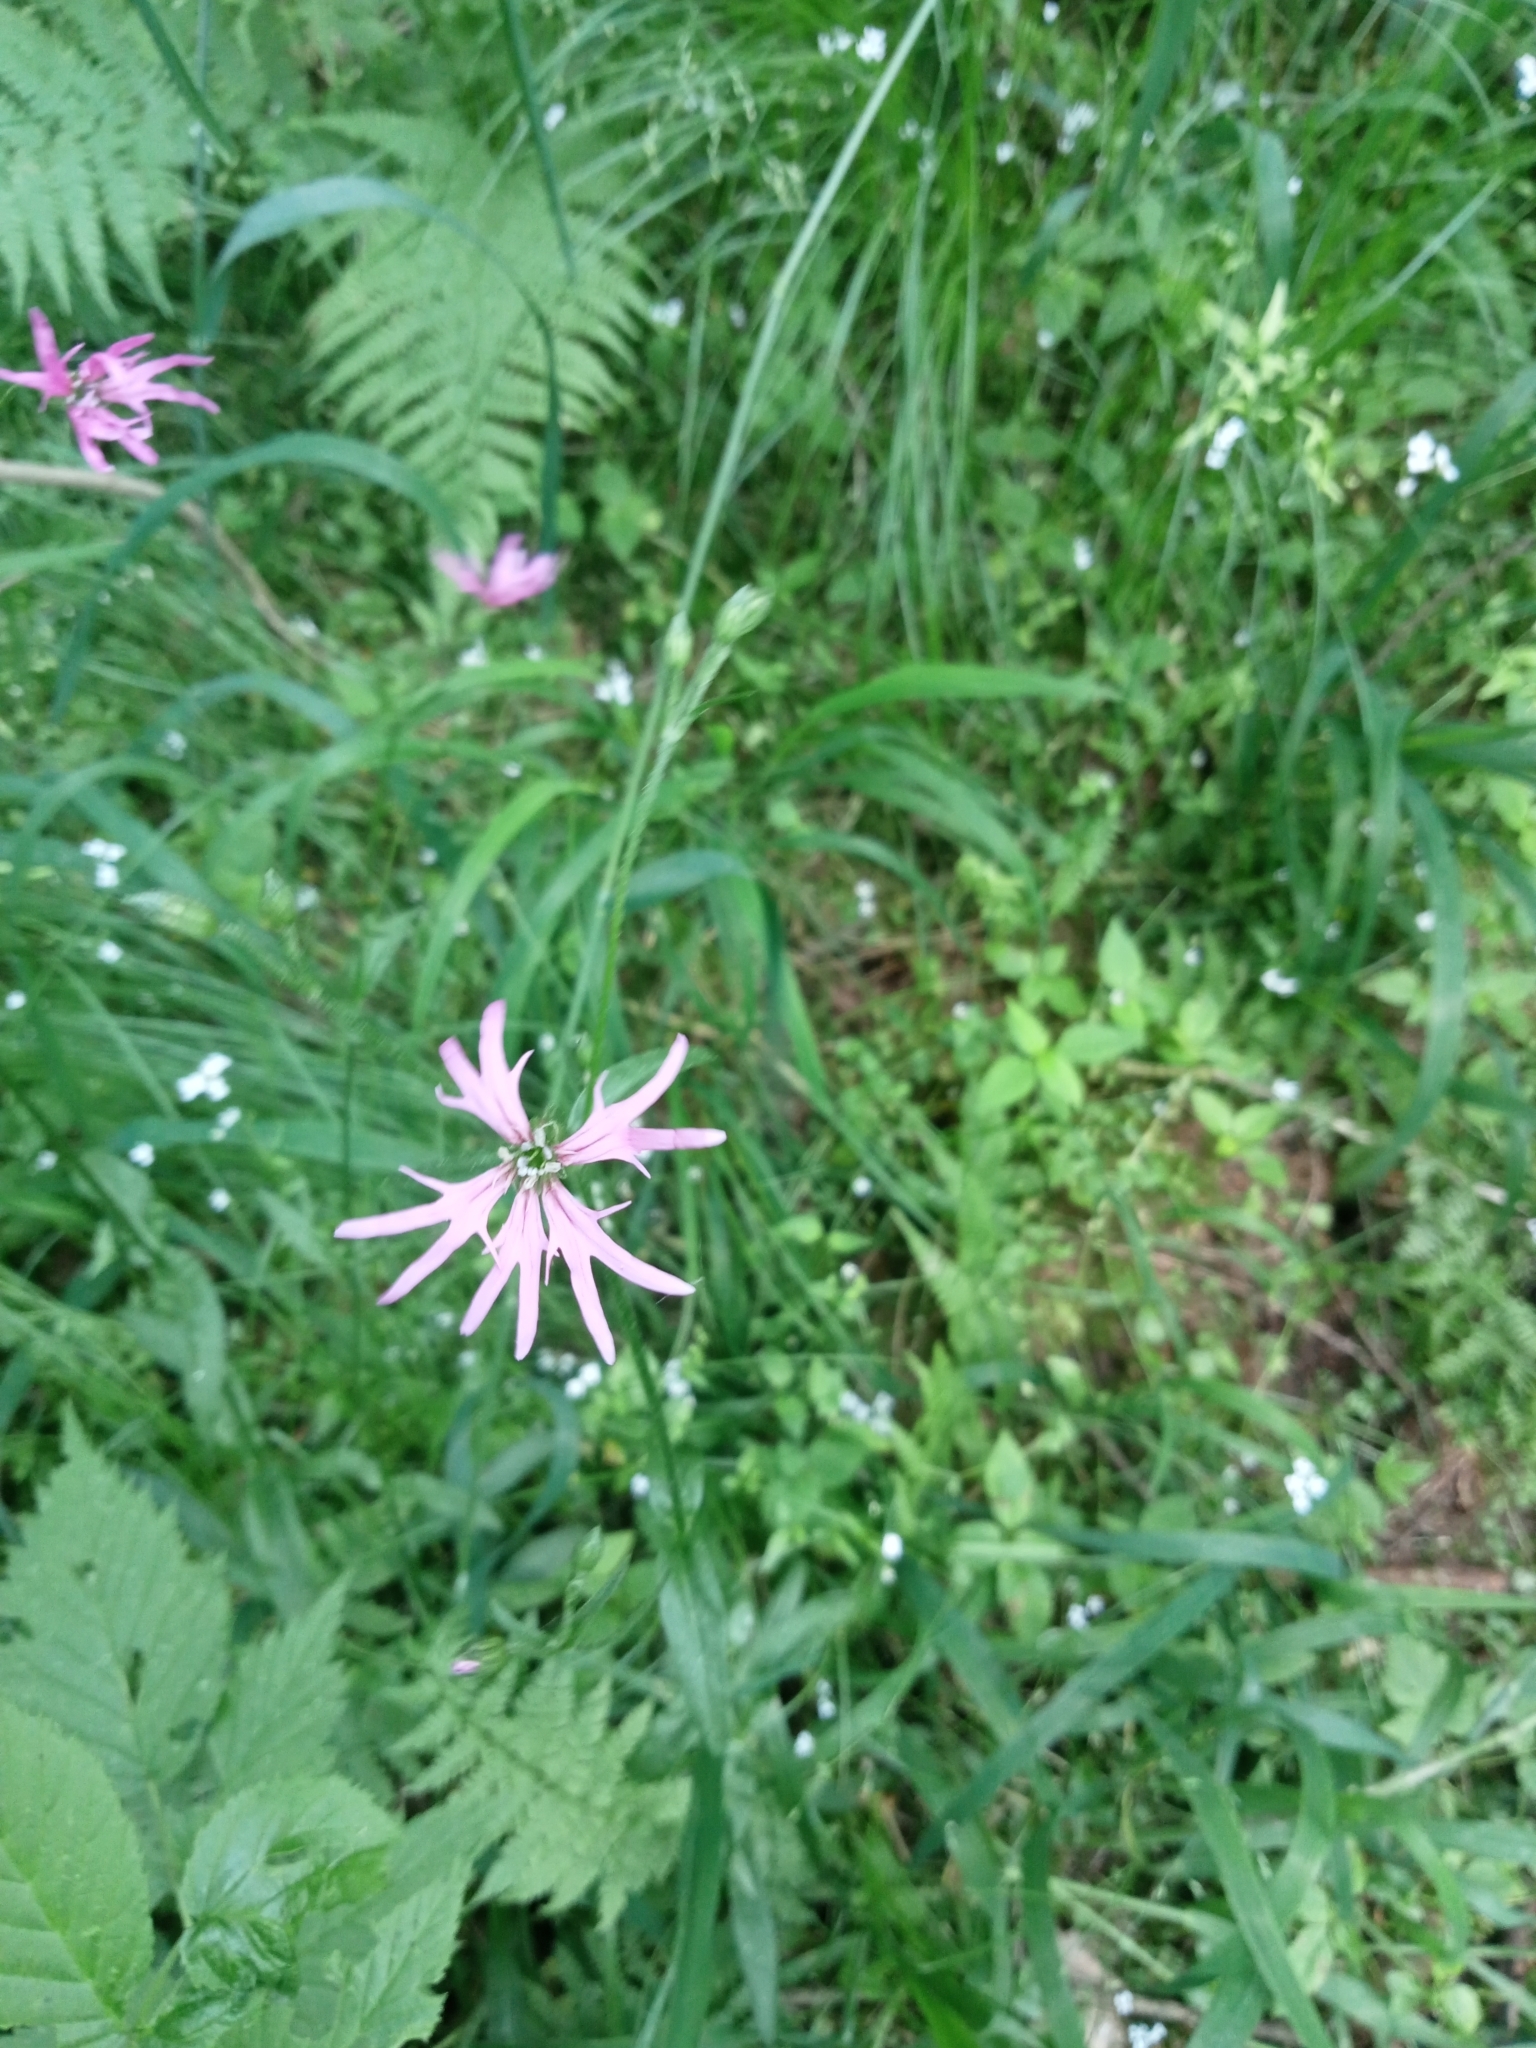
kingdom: Plantae
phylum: Tracheophyta
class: Magnoliopsida
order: Caryophyllales
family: Caryophyllaceae
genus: Silene
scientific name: Silene flos-cuculi
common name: Ragged-robin
